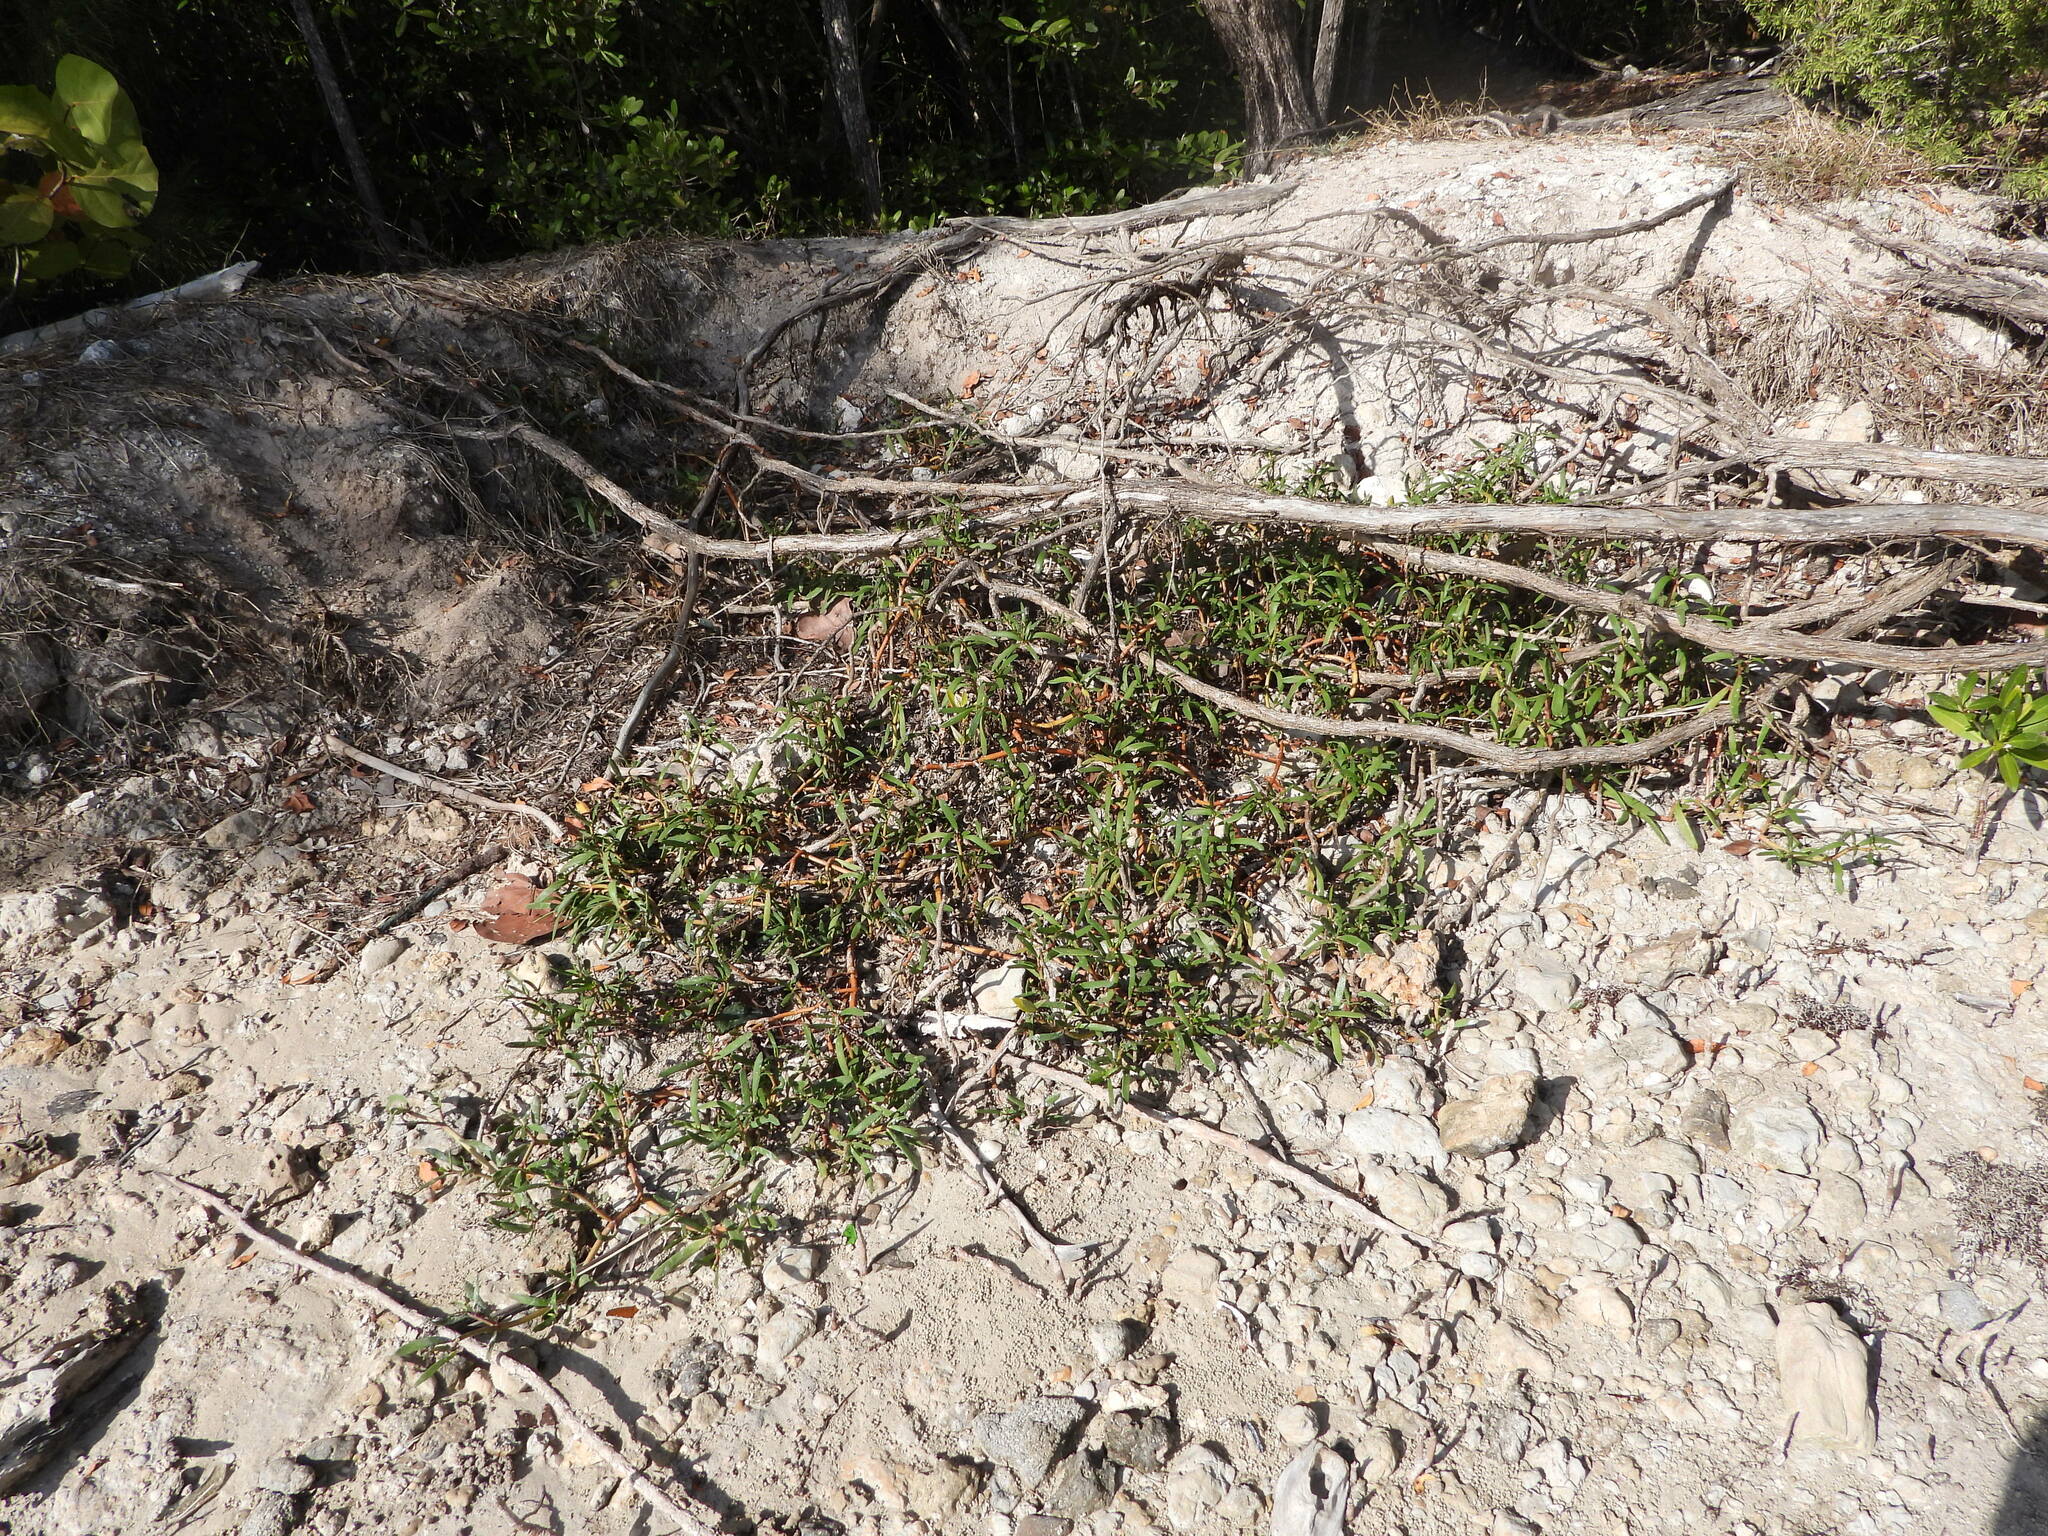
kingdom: Plantae
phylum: Tracheophyta
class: Magnoliopsida
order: Caryophyllales
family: Aizoaceae
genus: Sesuvium
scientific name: Sesuvium portulacastrum
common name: Sea-purslane
